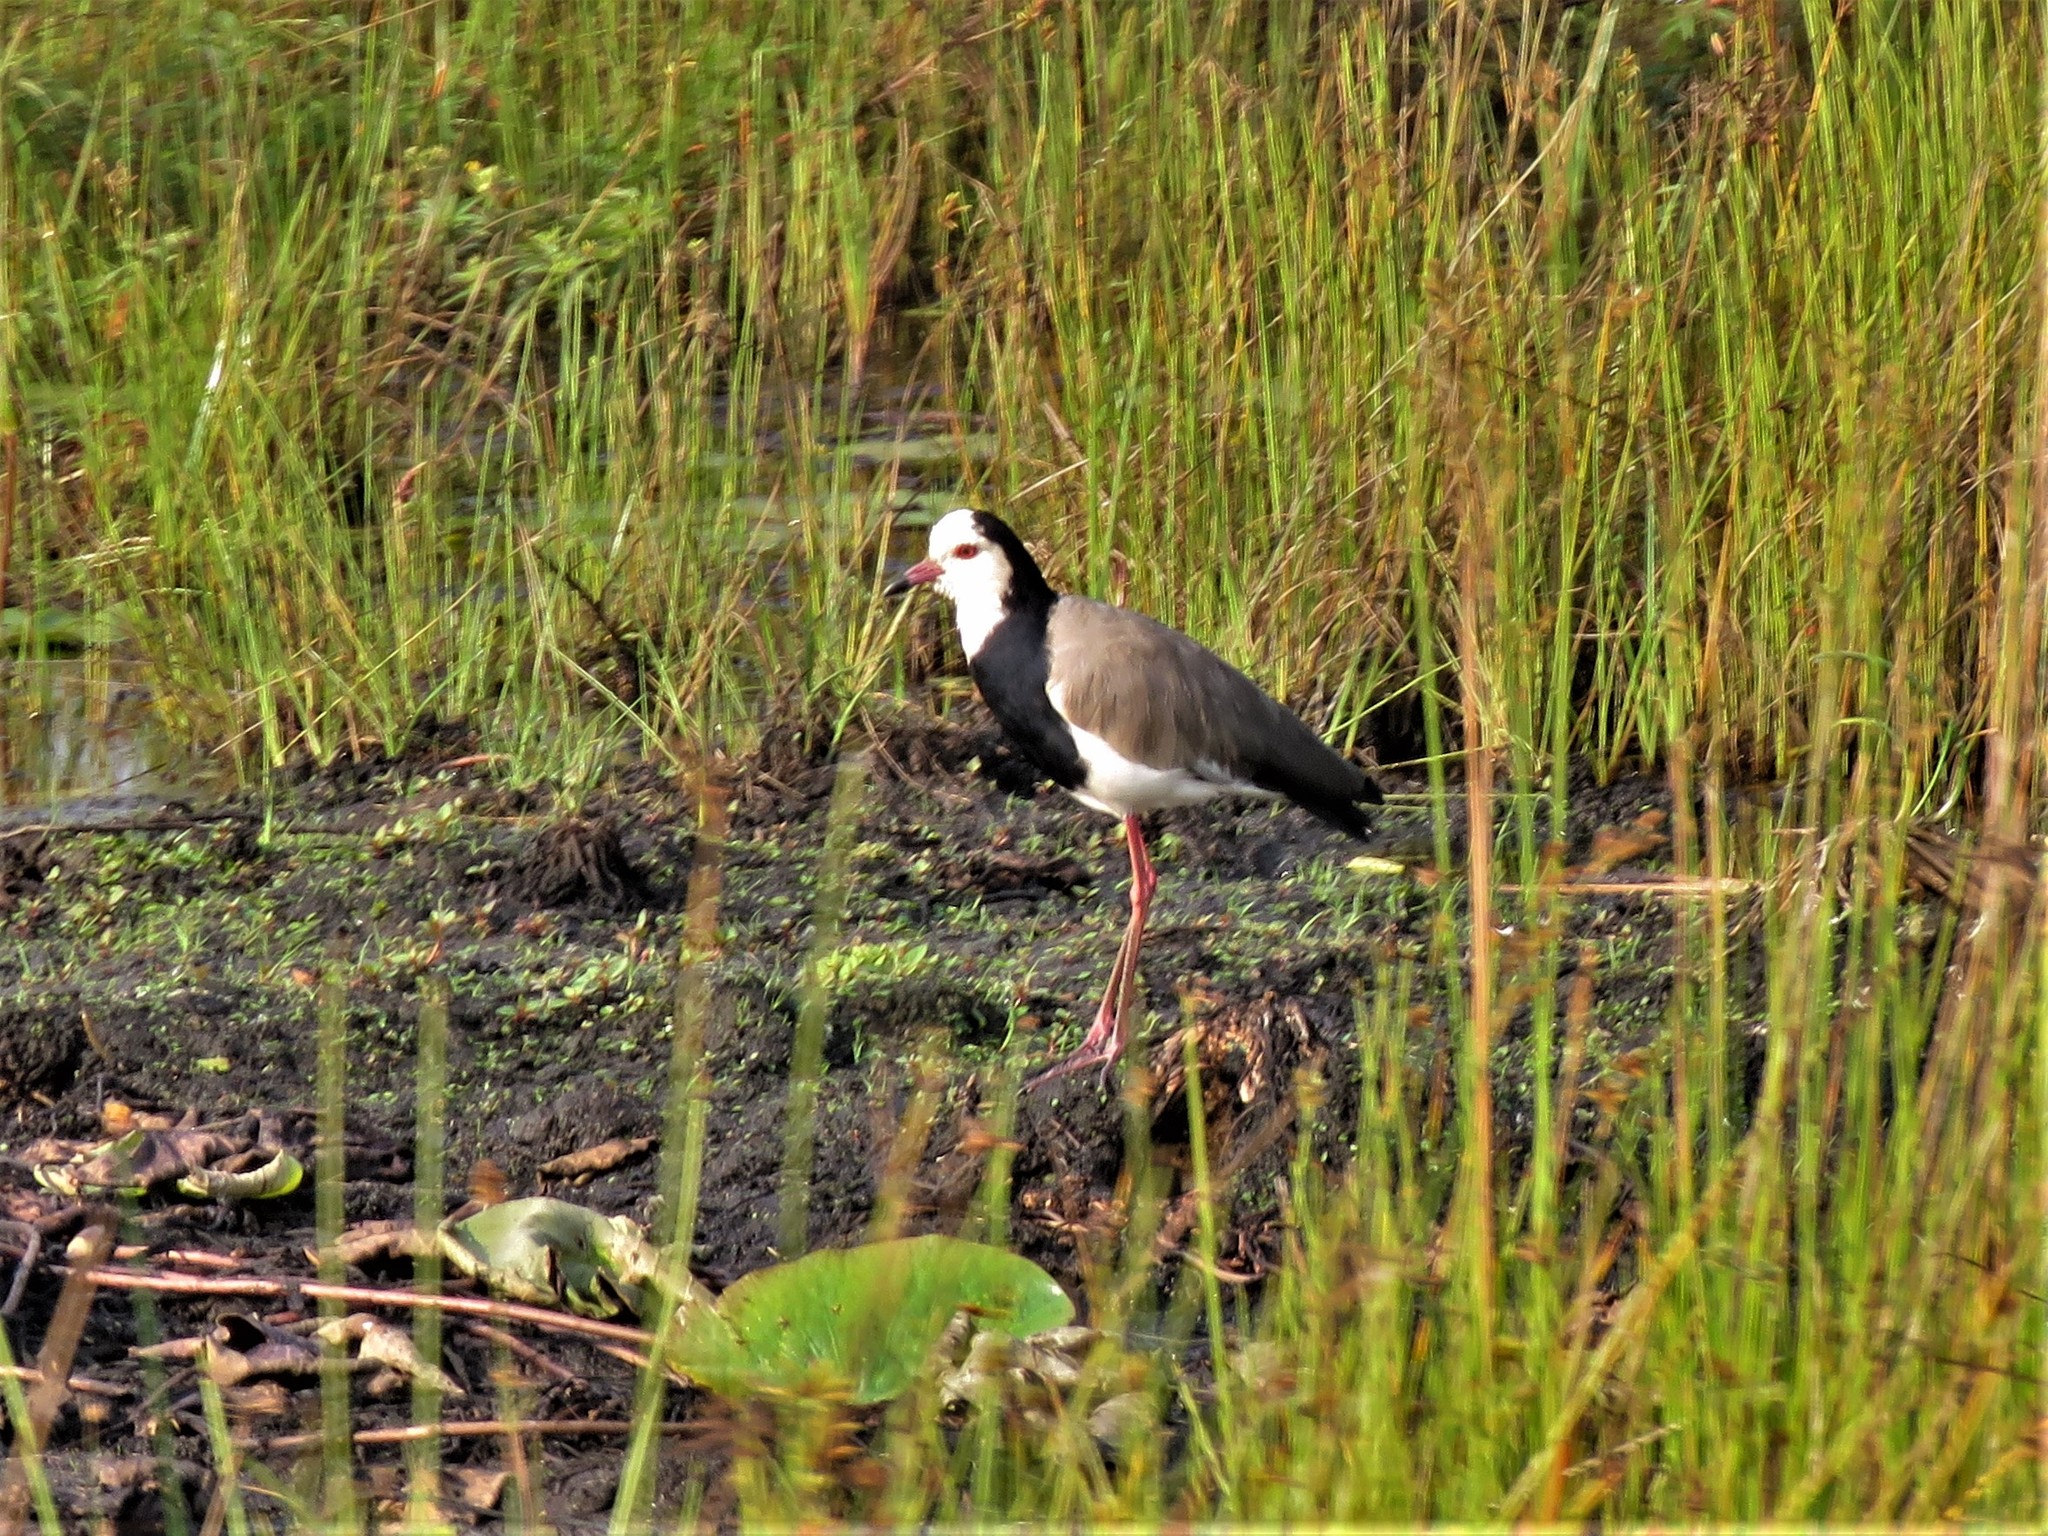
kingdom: Animalia
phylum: Chordata
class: Aves
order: Charadriiformes
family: Charadriidae
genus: Vanellus
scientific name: Vanellus crassirostris
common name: Long-toed lapwing
